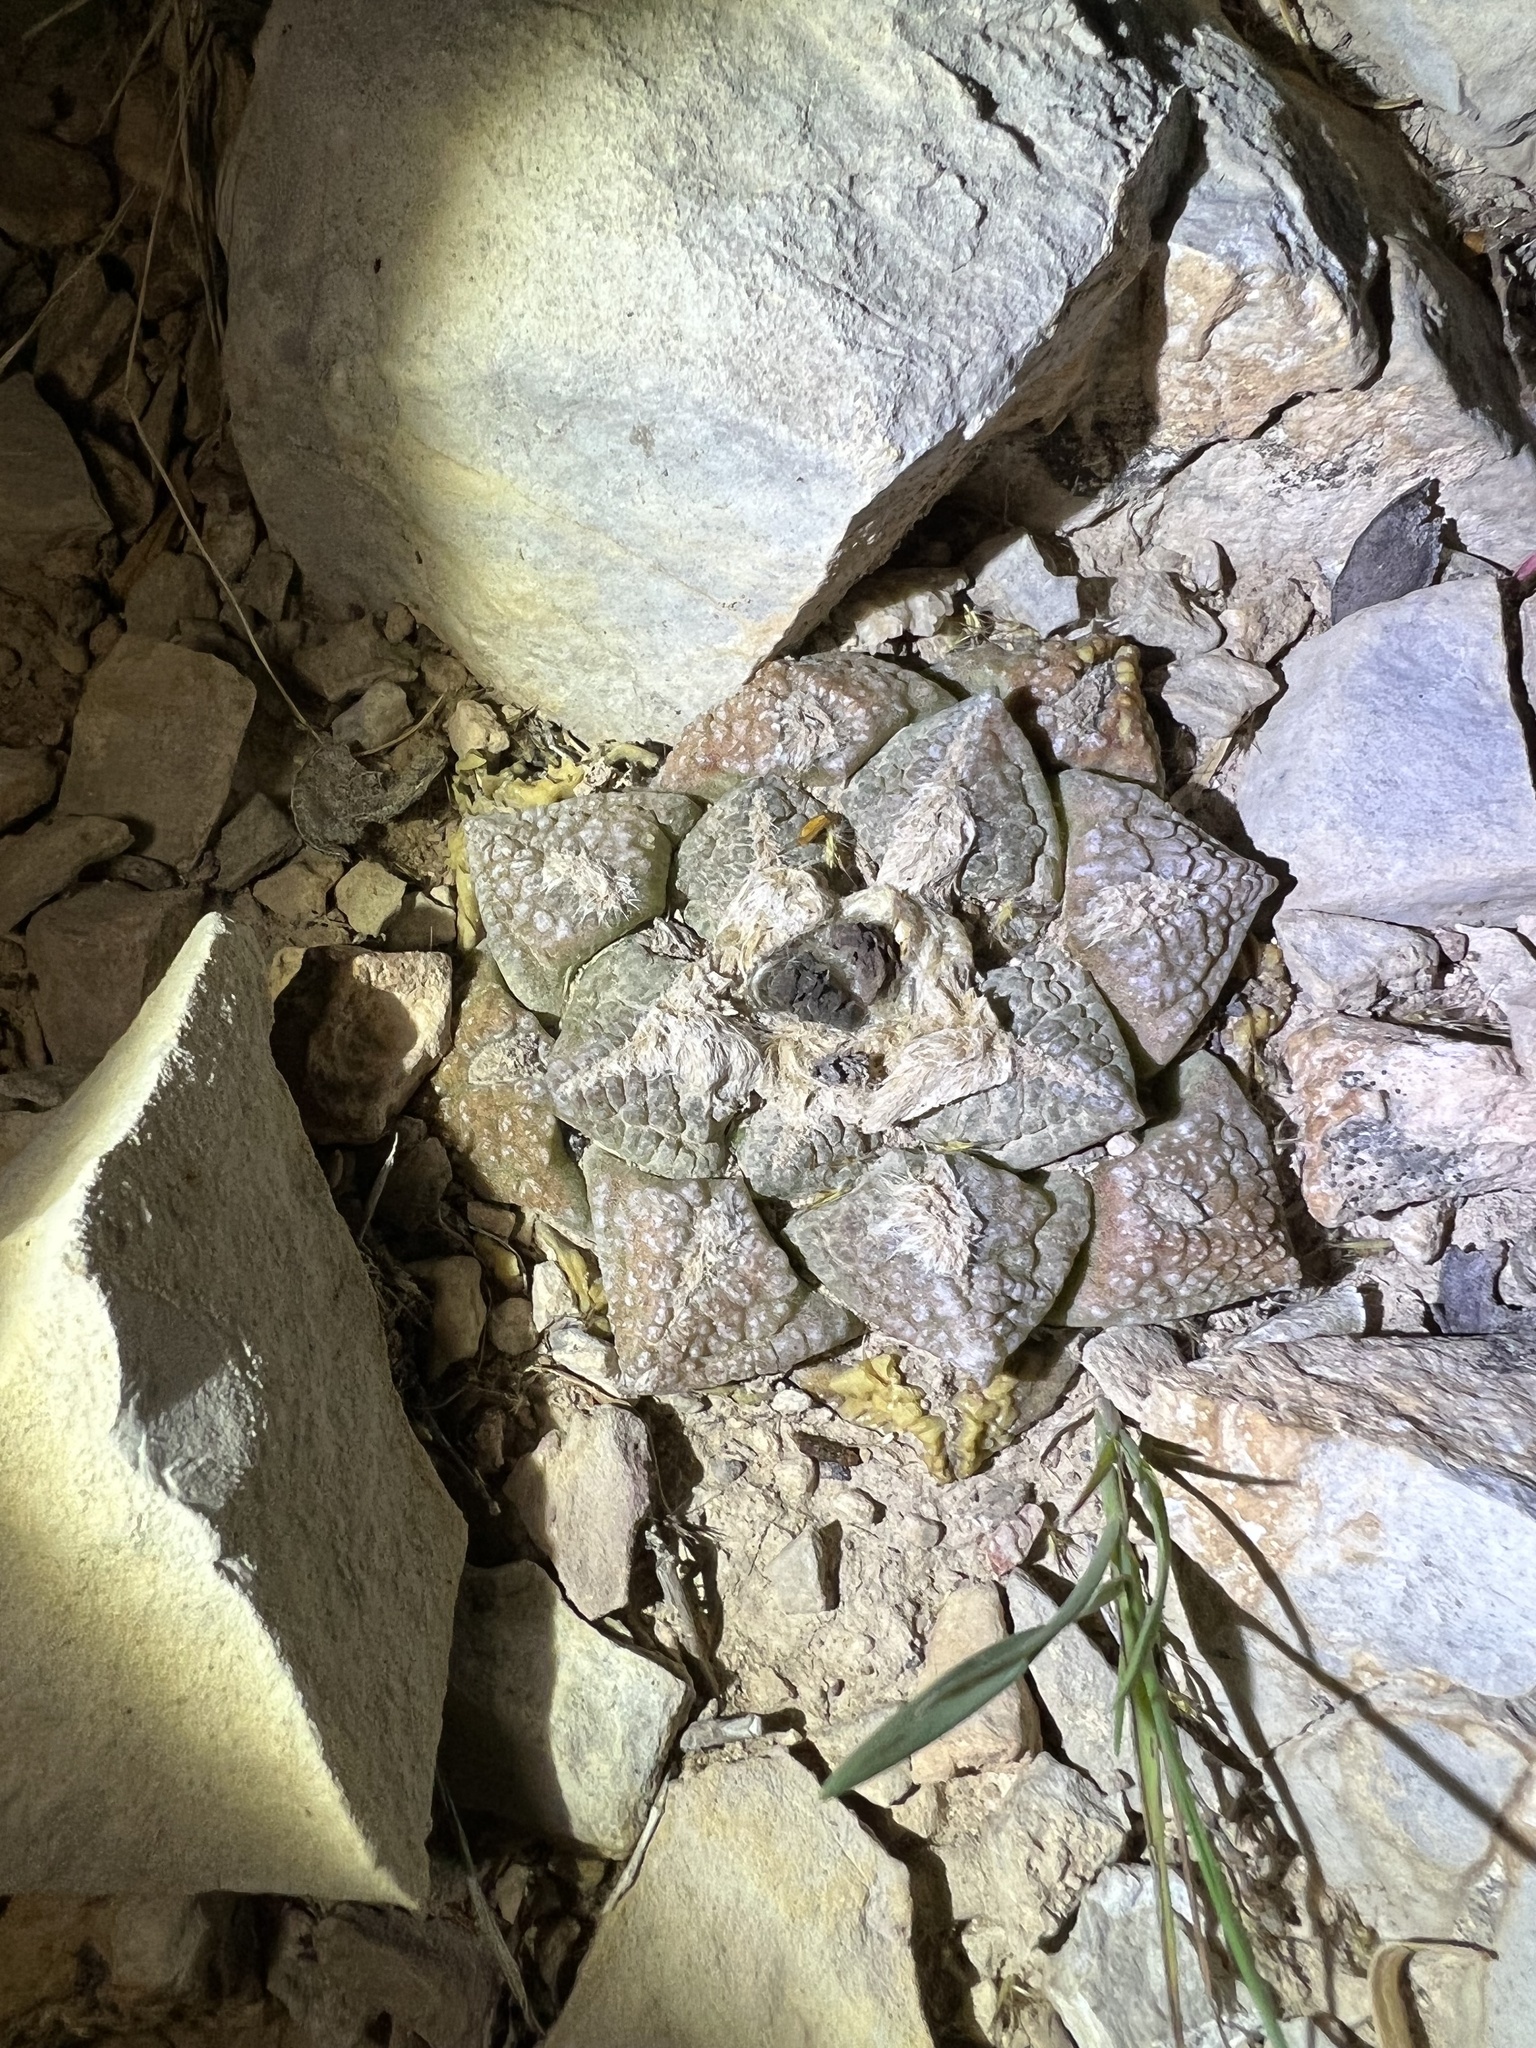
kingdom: Plantae
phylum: Tracheophyta
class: Magnoliopsida
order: Caryophyllales
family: Cactaceae
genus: Ariocarpus
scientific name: Ariocarpus fissuratus
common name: Chautle-living rock
